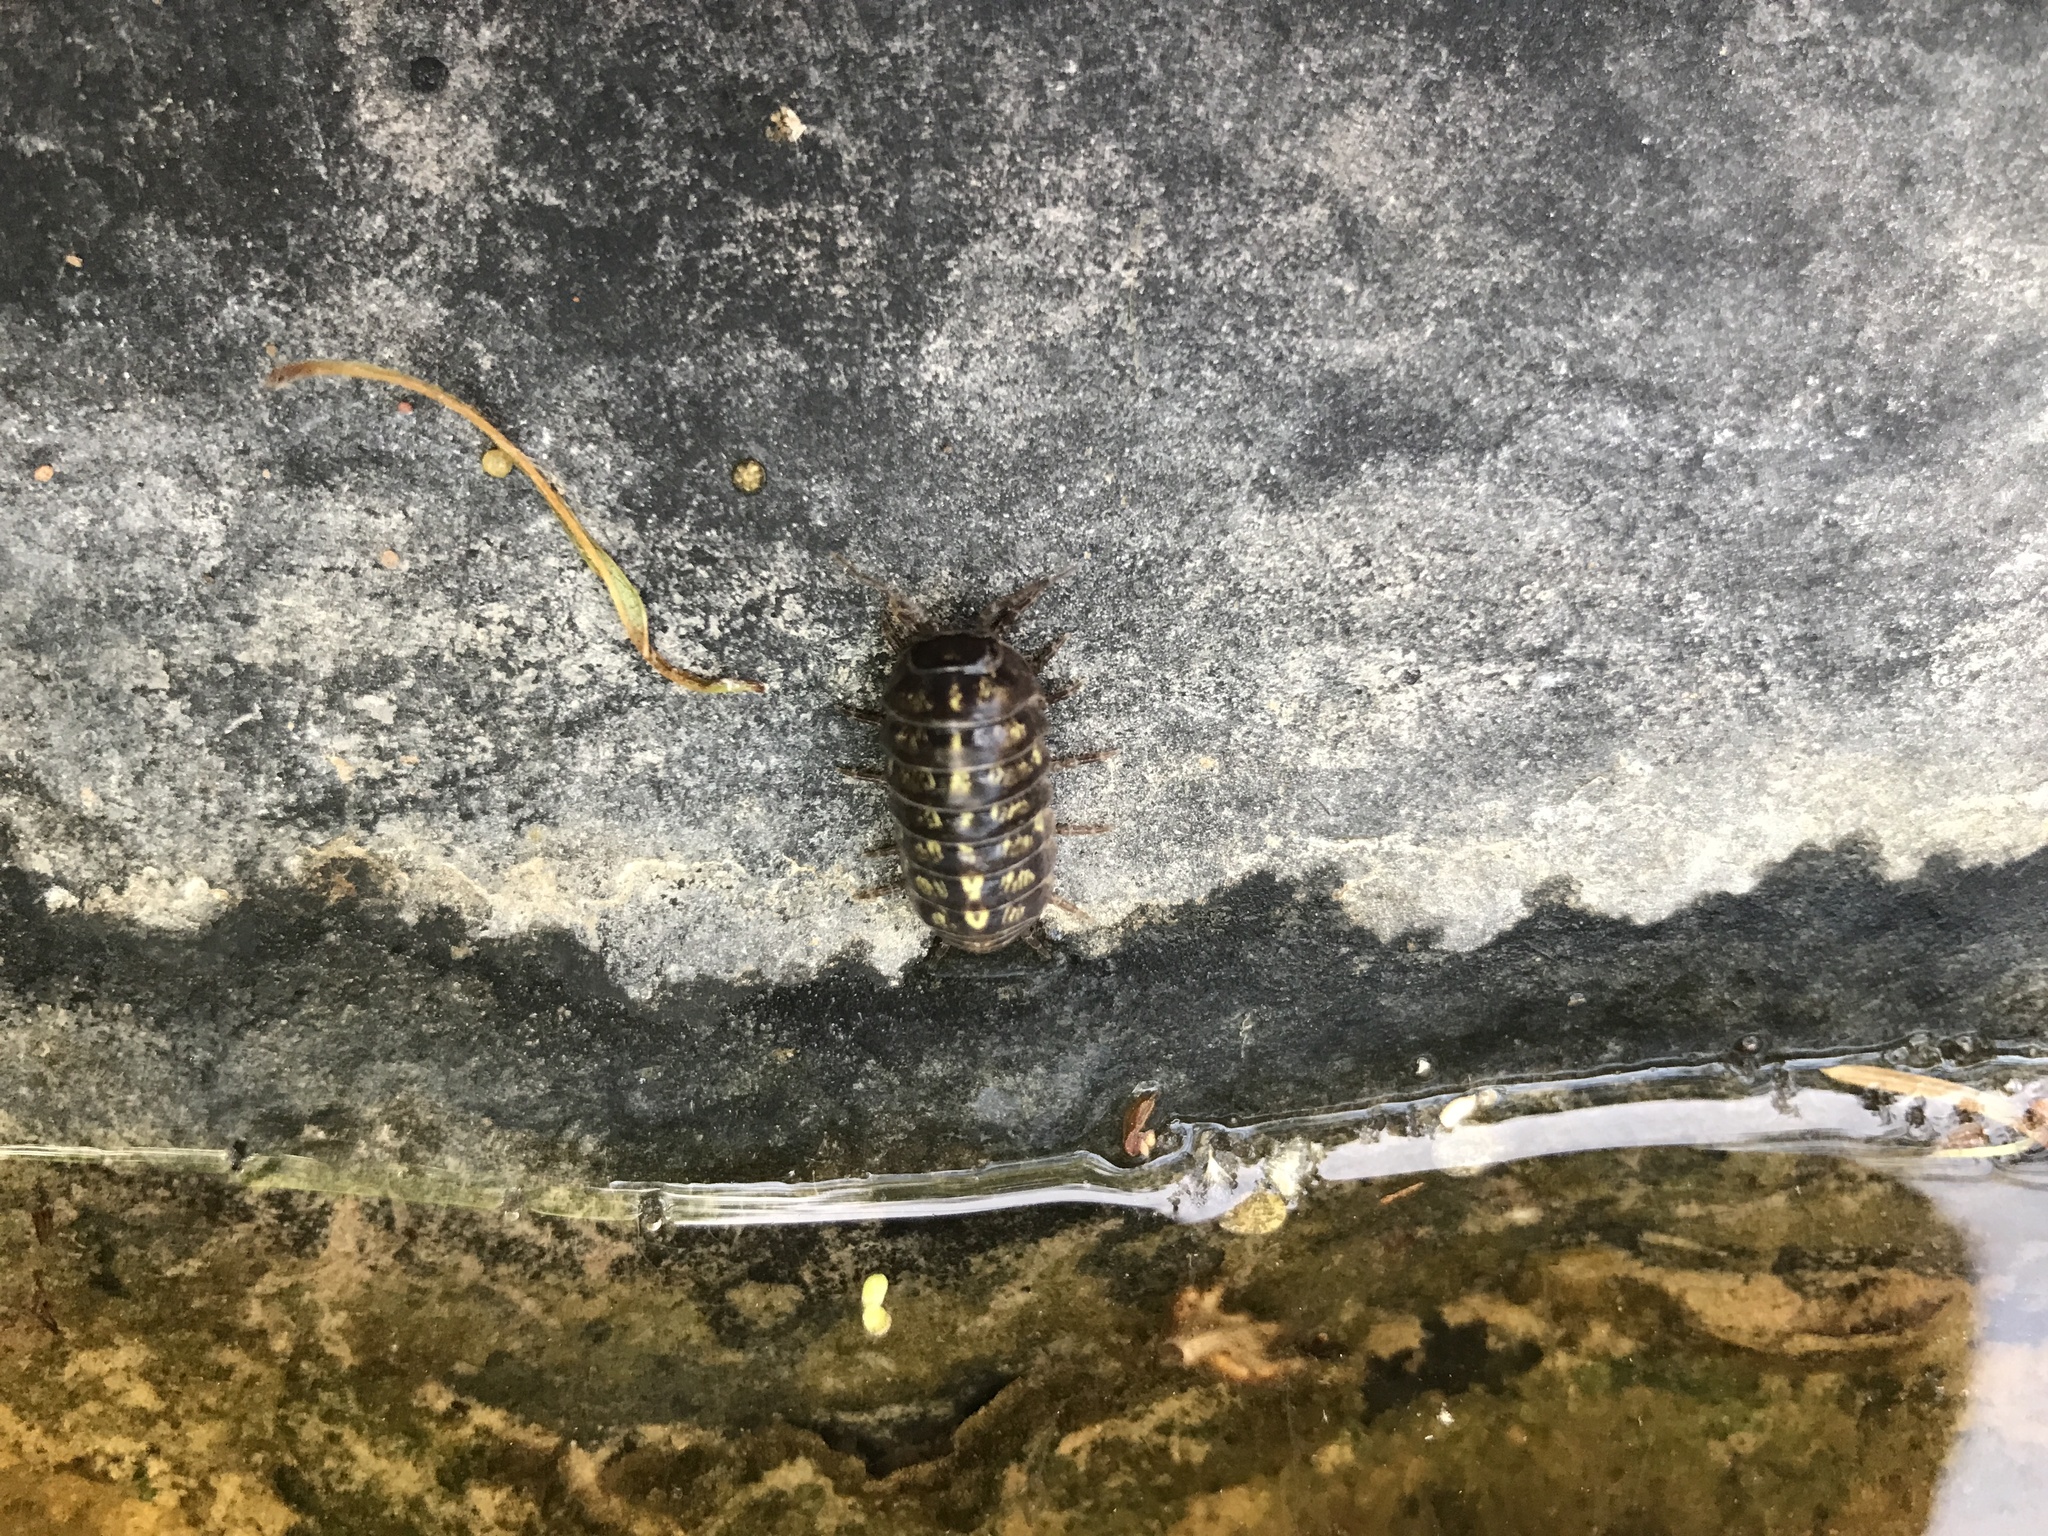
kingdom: Animalia
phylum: Arthropoda
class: Malacostraca
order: Isopoda
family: Armadillidiidae
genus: Armadillidium
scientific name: Armadillidium vulgare
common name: Common pill woodlouse
